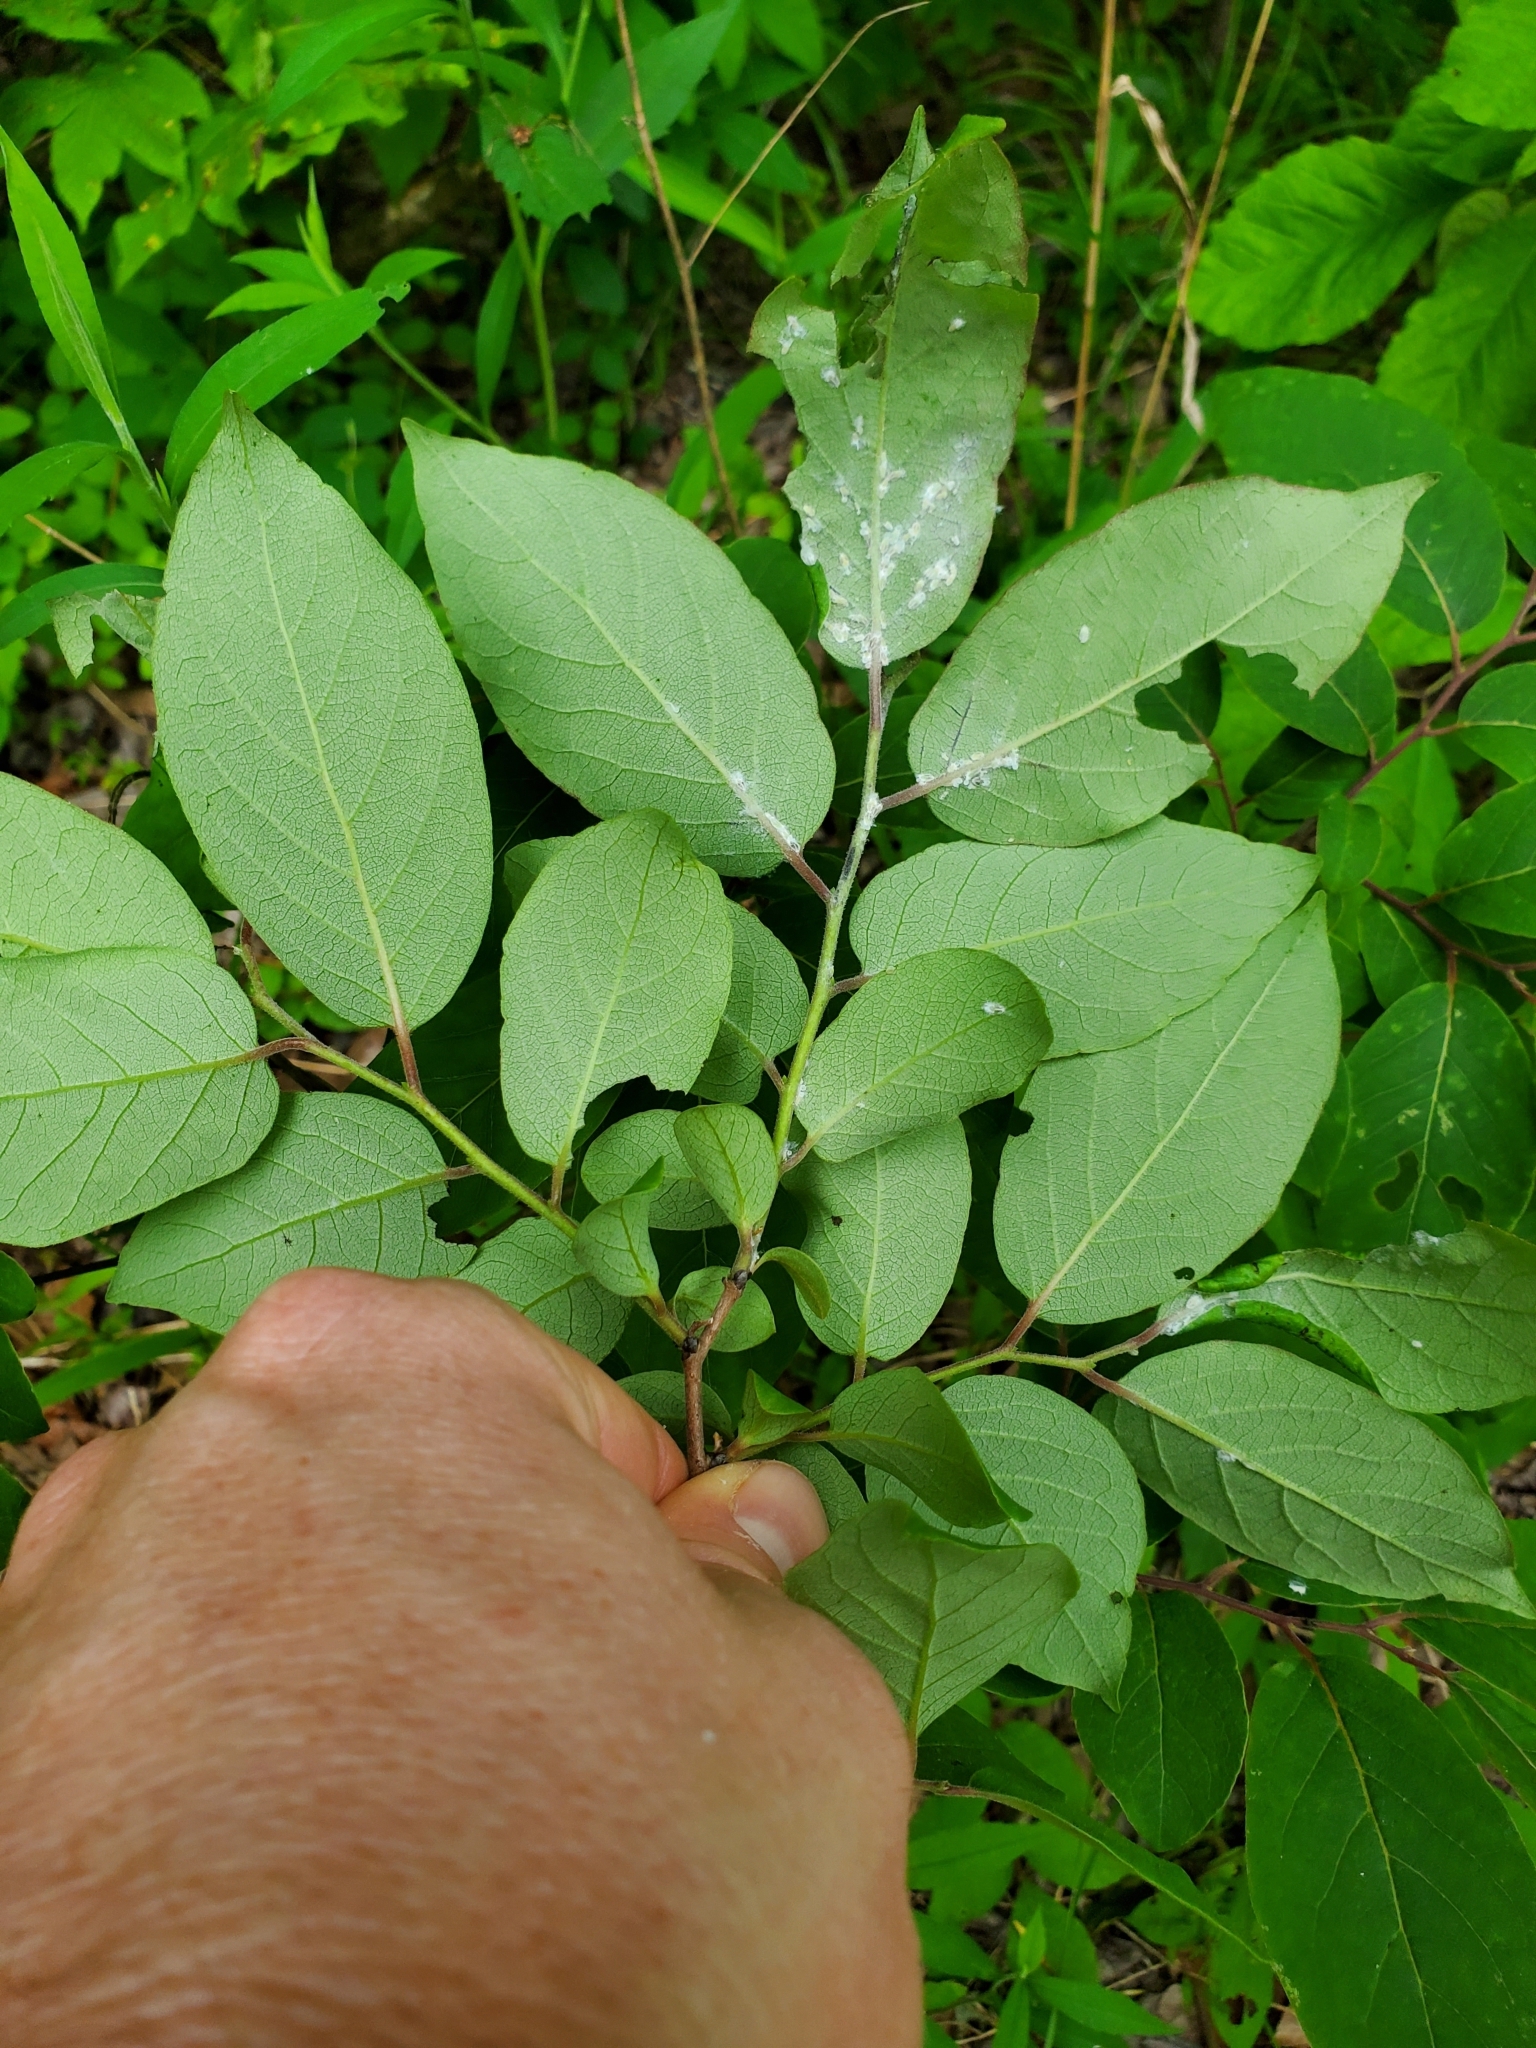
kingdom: Plantae
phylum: Tracheophyta
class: Magnoliopsida
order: Ericales
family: Ericaceae
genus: Vaccinium
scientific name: Vaccinium stamineum
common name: Deerberry
